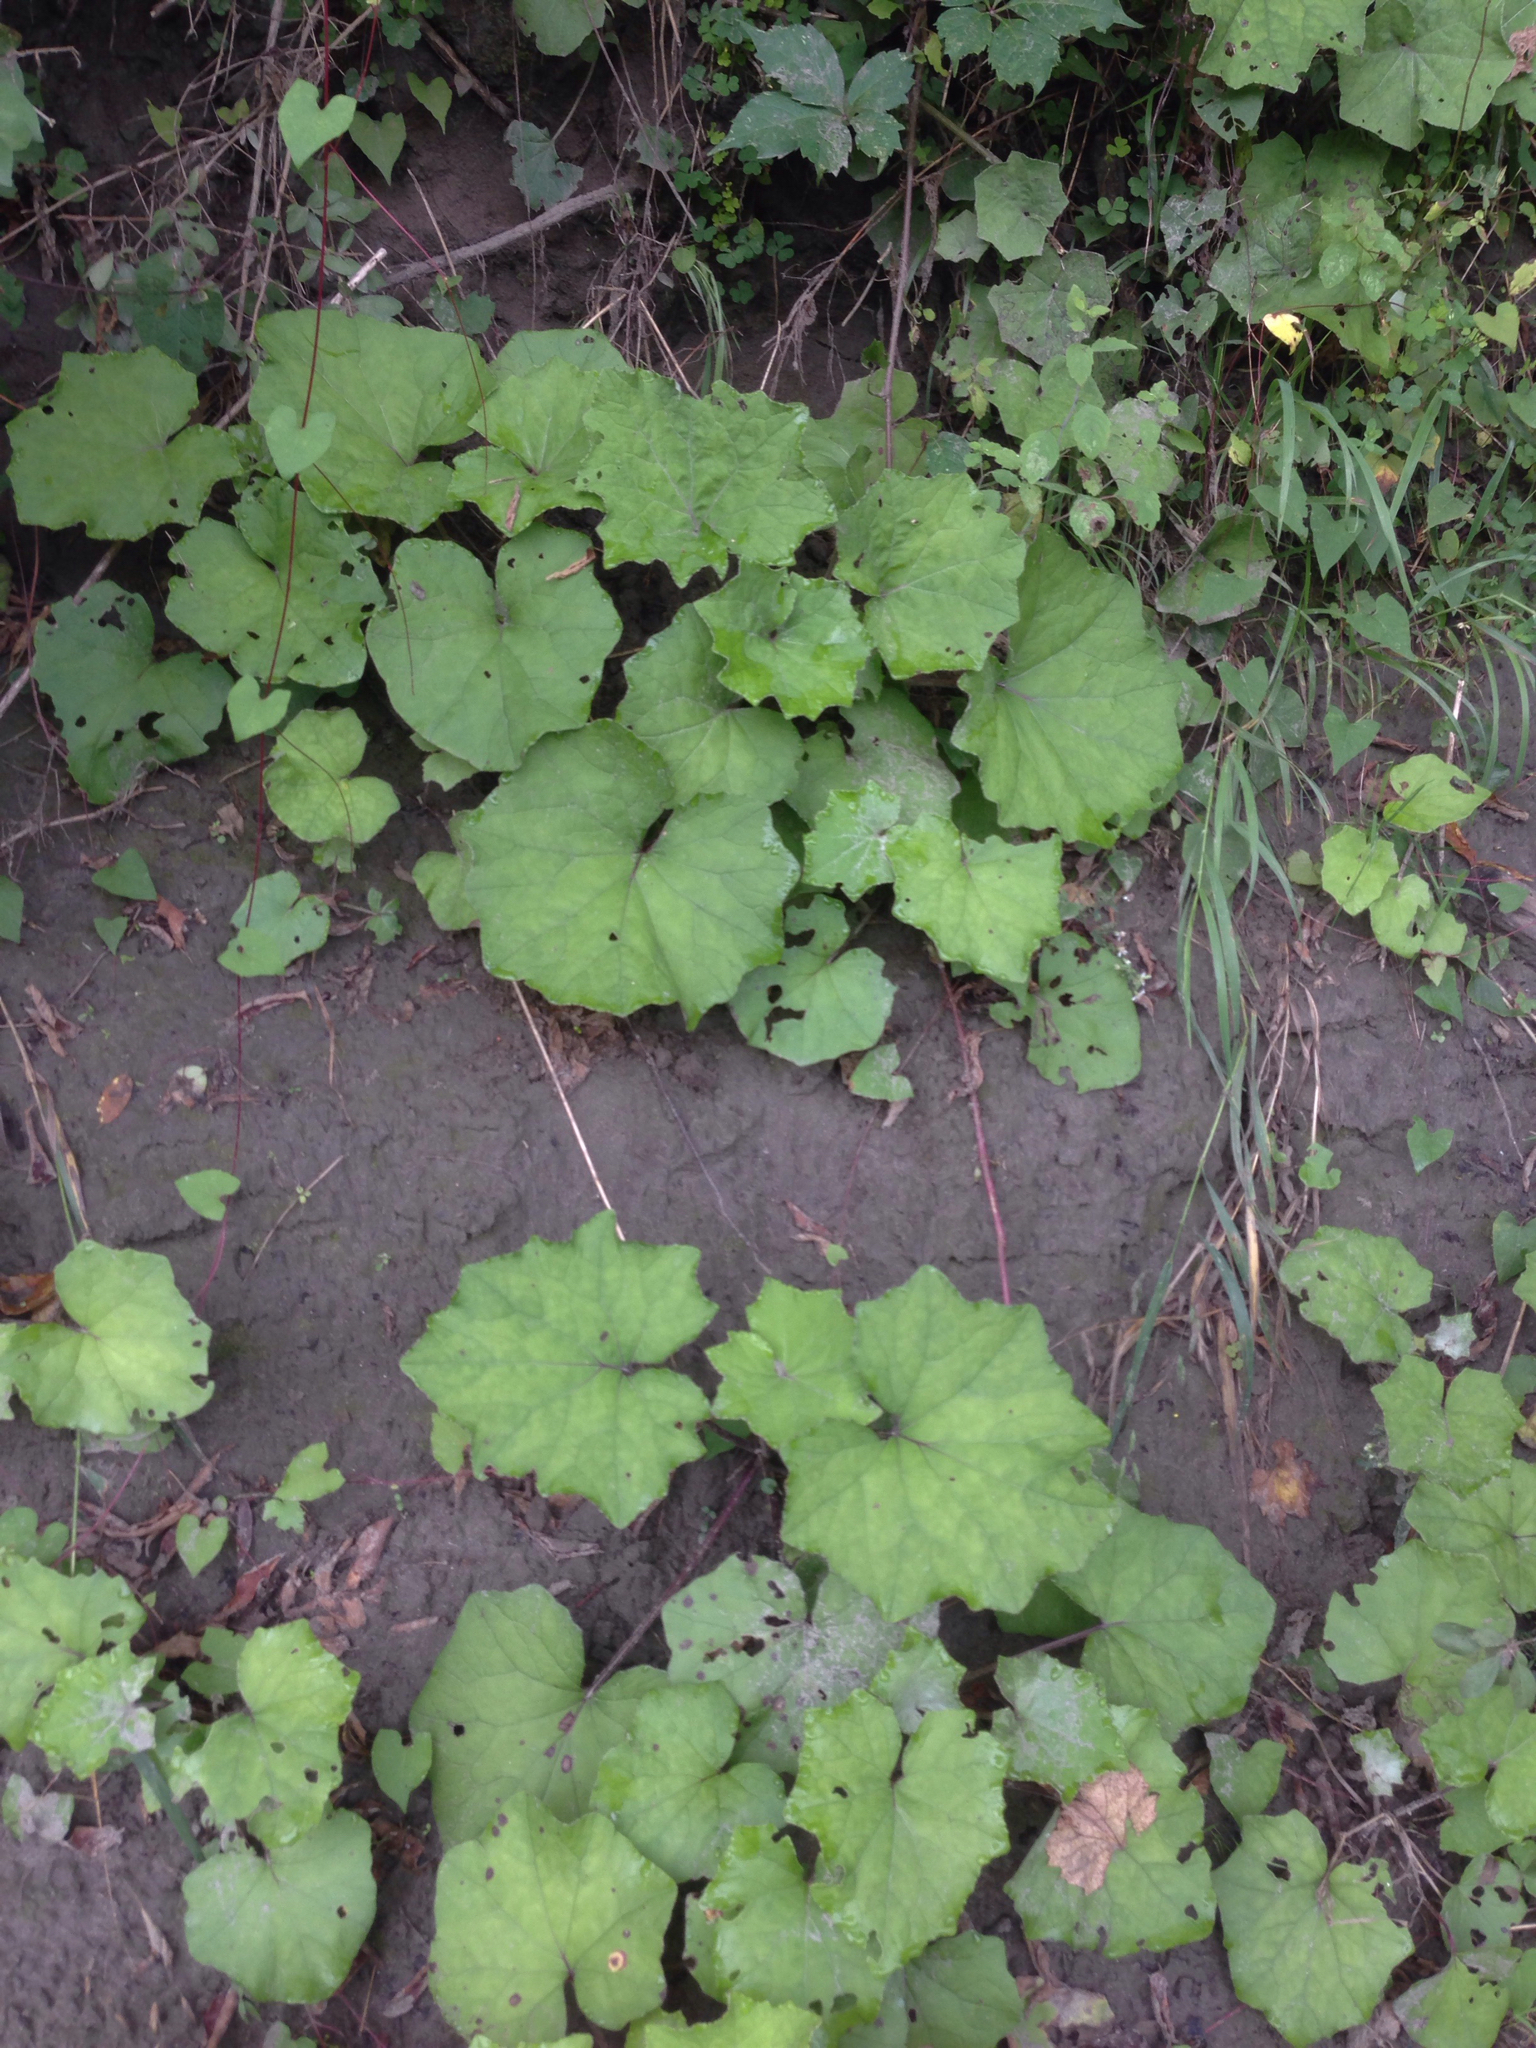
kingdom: Plantae
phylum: Tracheophyta
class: Magnoliopsida
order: Asterales
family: Asteraceae
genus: Tussilago
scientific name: Tussilago farfara
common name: Coltsfoot
